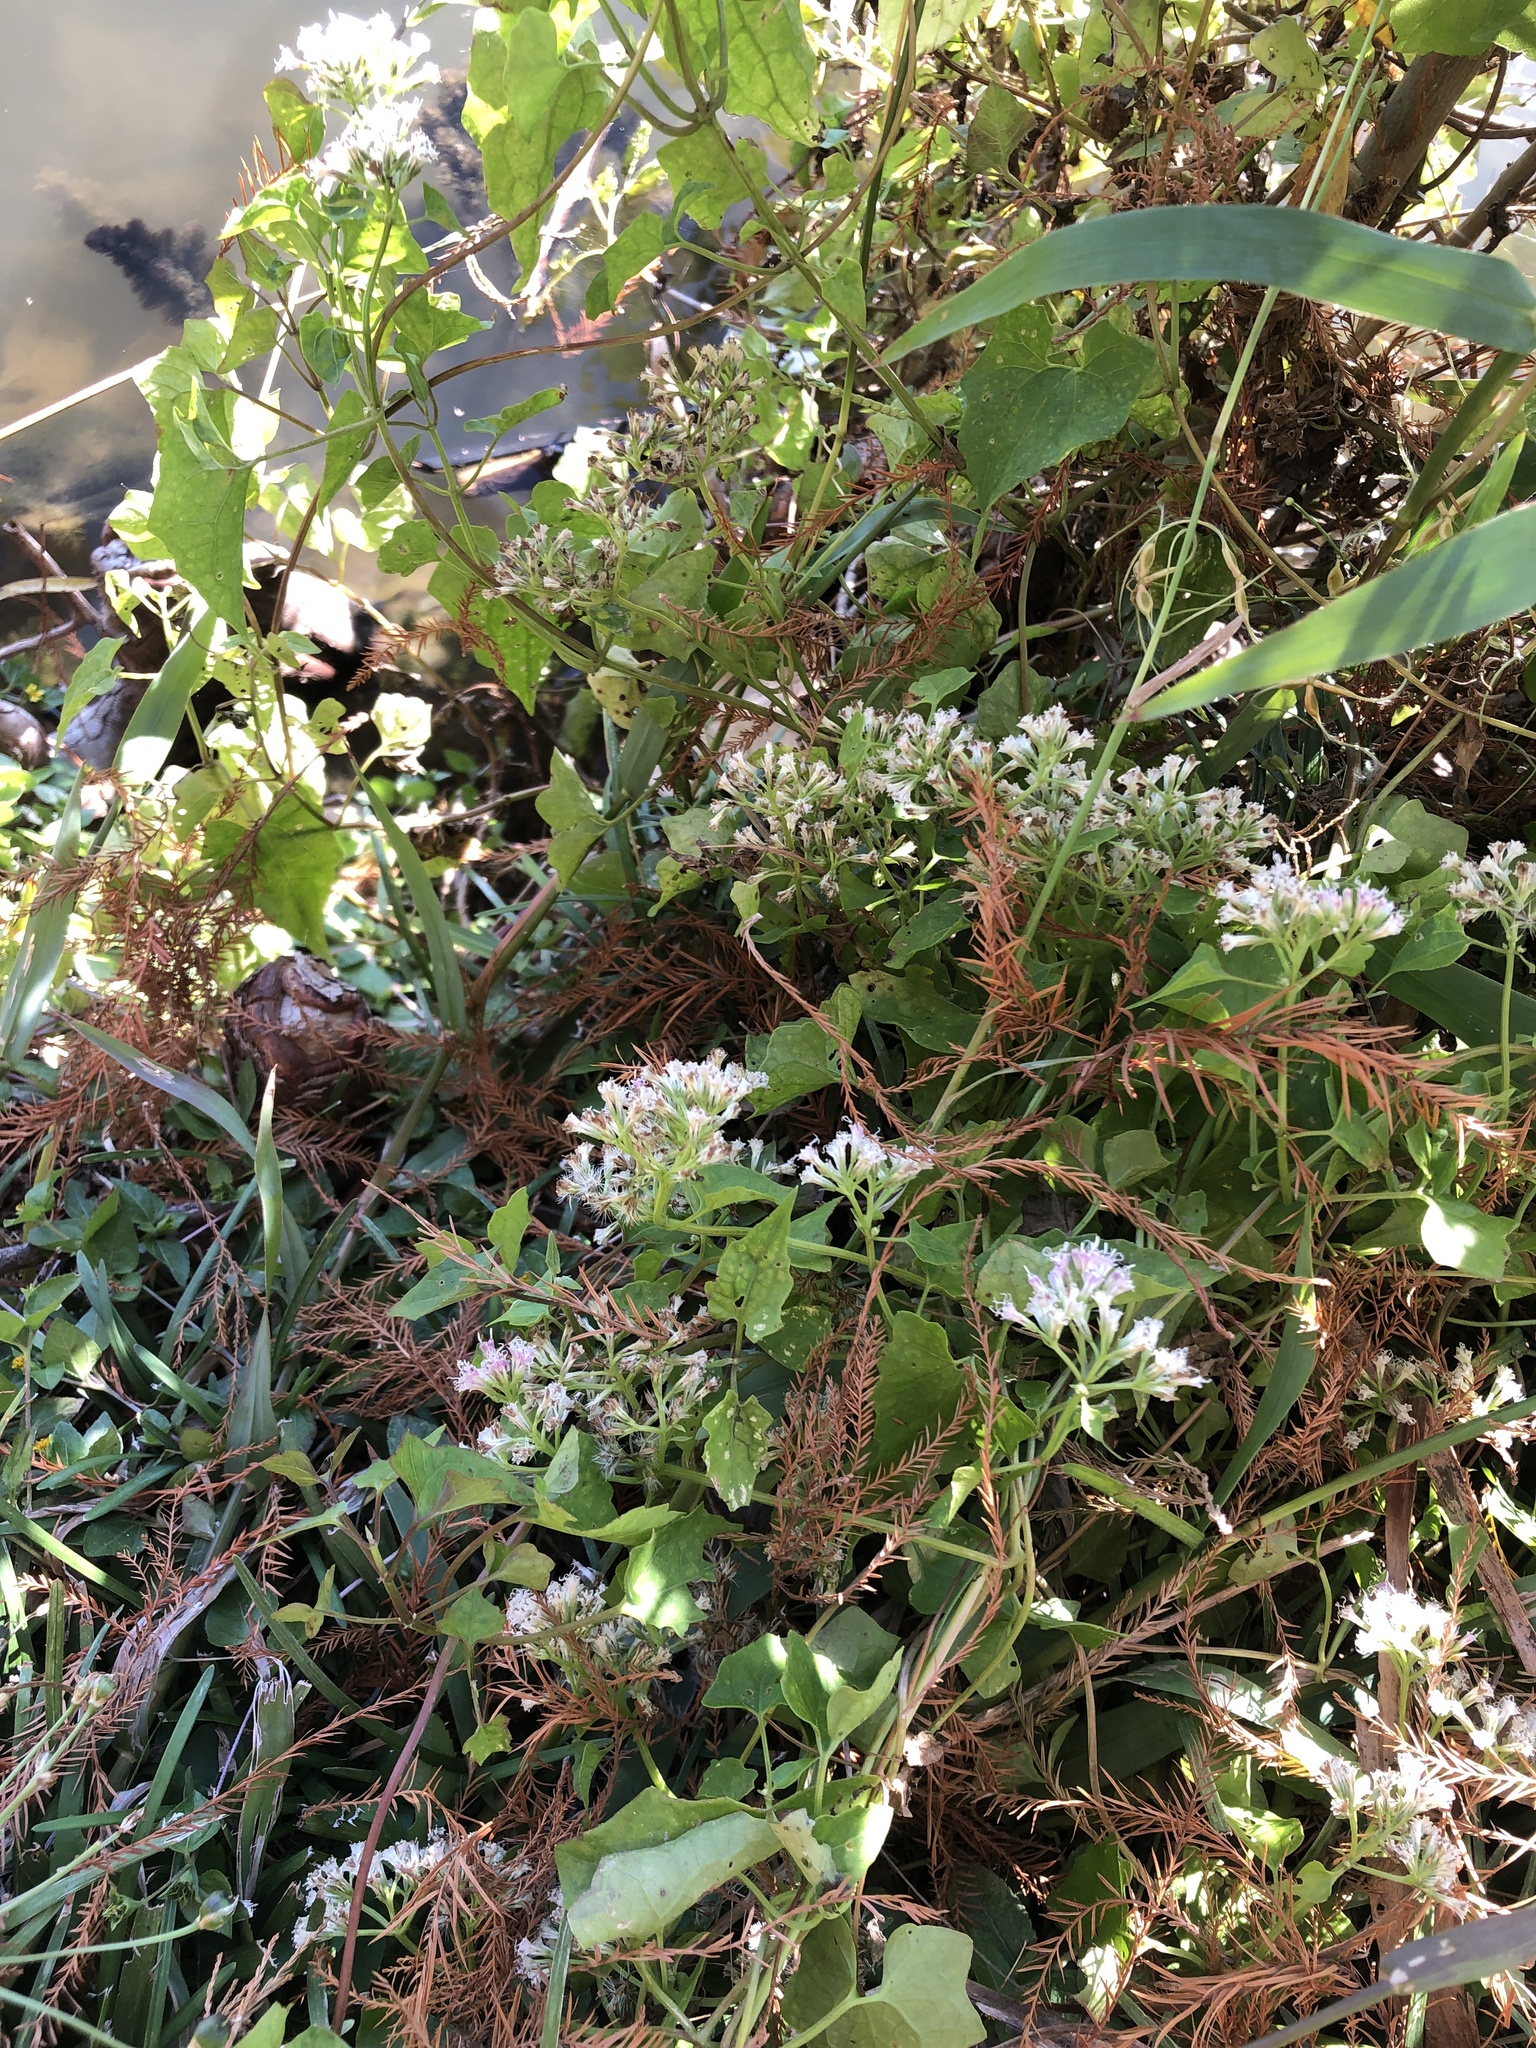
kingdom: Plantae
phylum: Tracheophyta
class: Magnoliopsida
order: Asterales
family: Asteraceae
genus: Mikania
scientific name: Mikania scandens
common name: Climbing hempvine
